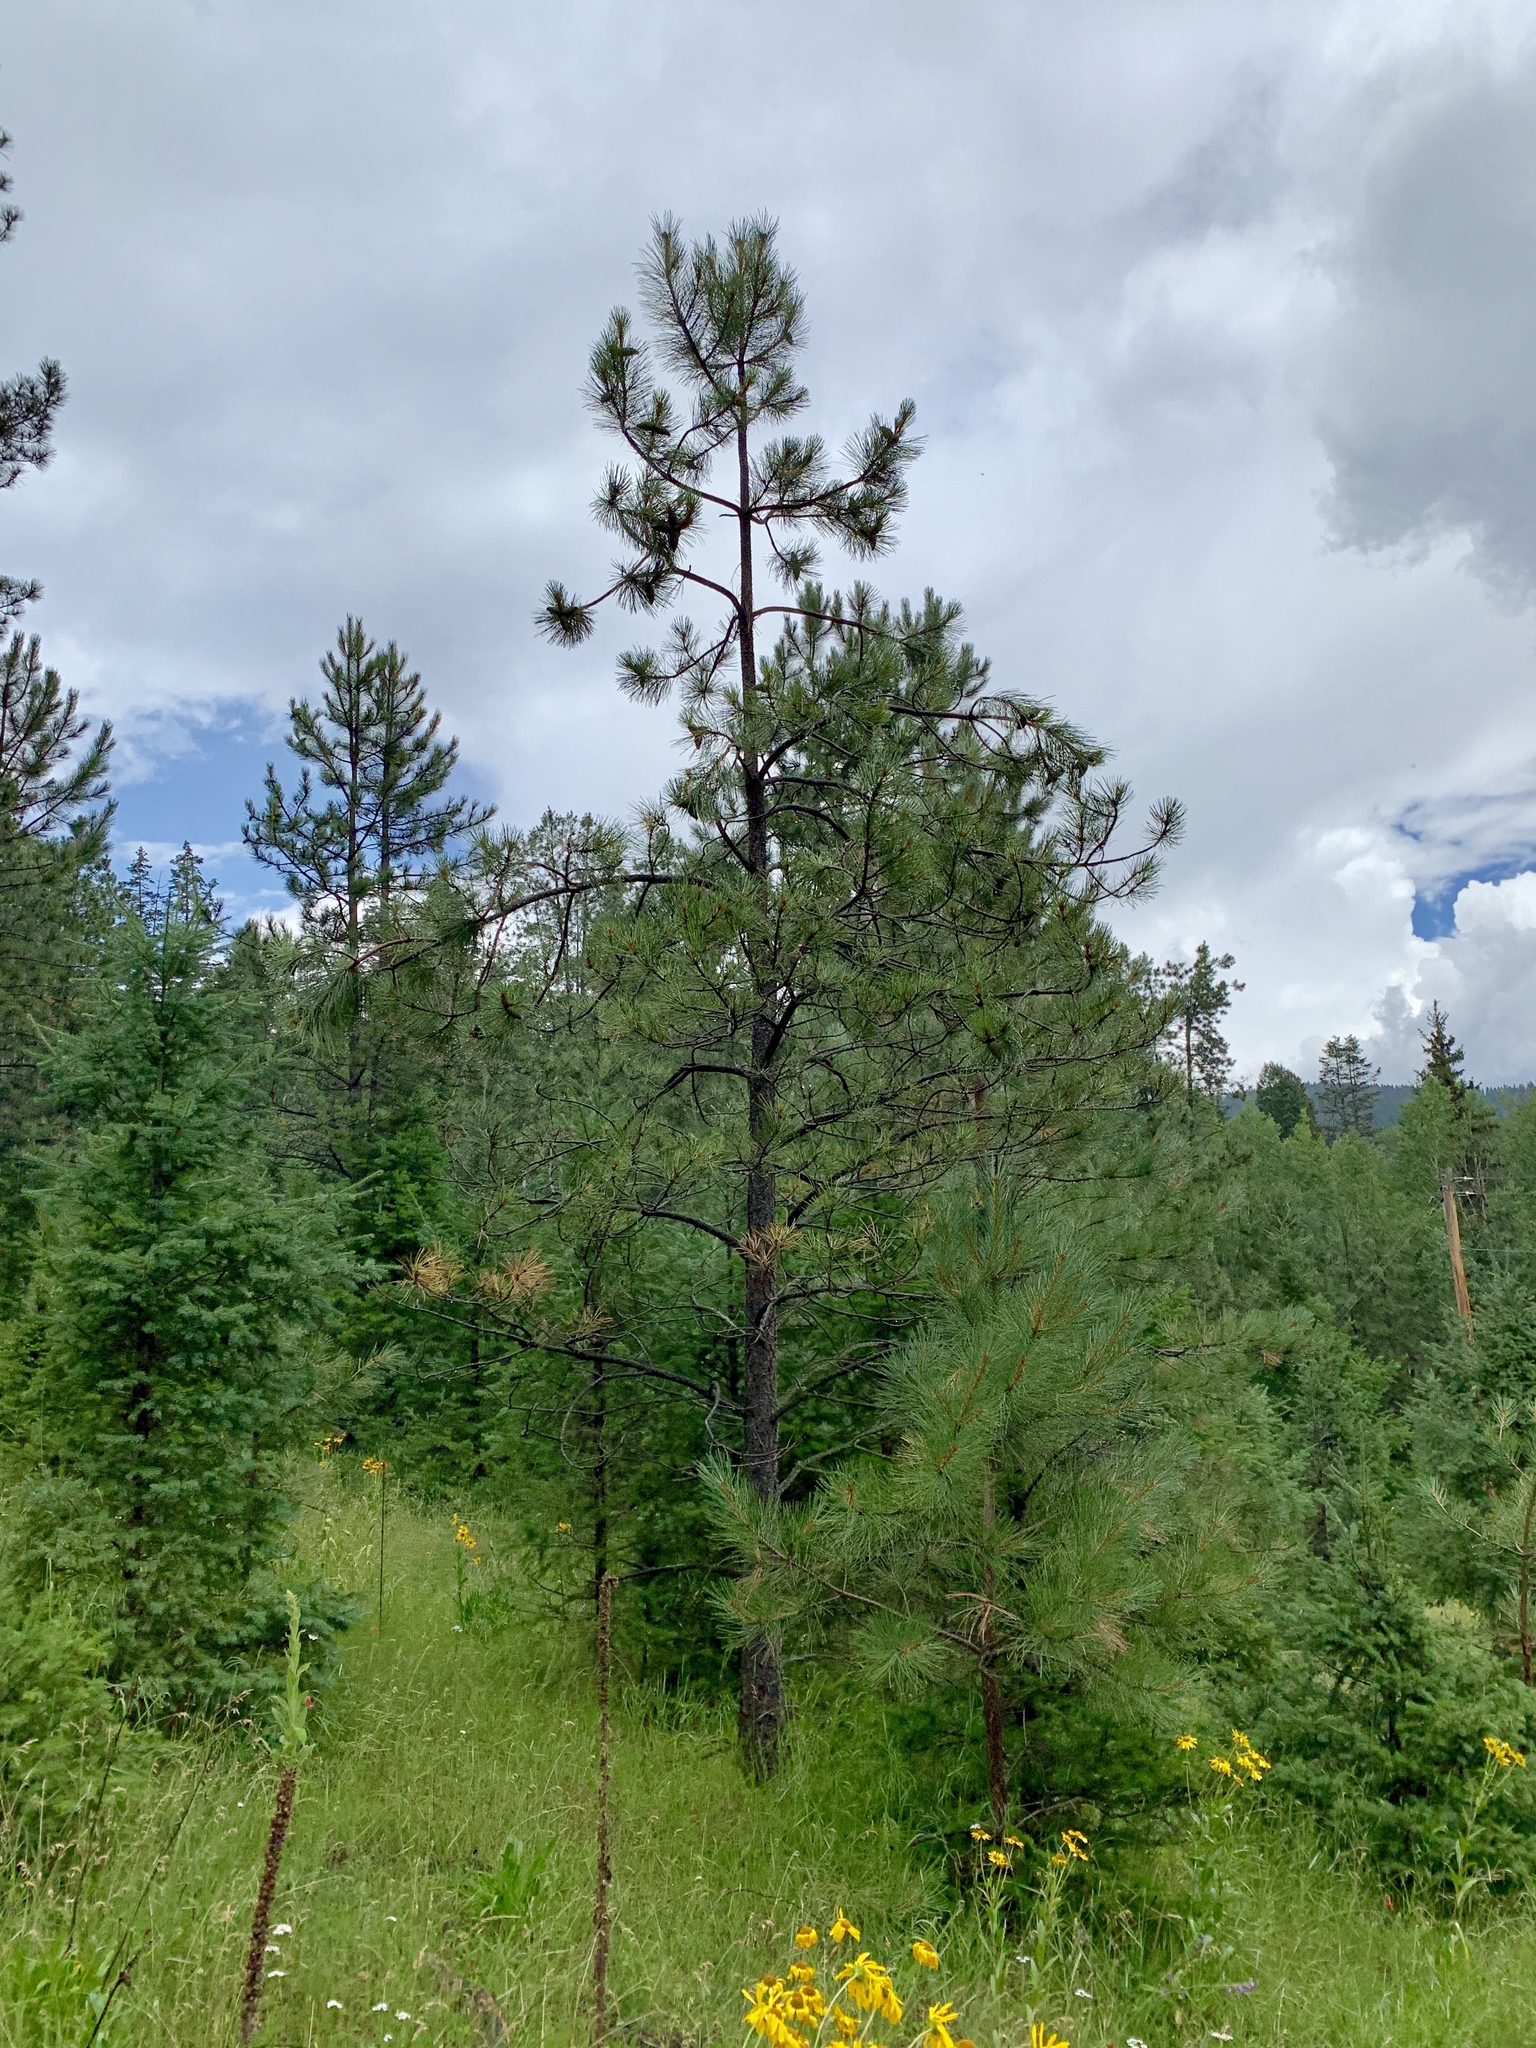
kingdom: Plantae
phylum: Tracheophyta
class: Pinopsida
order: Pinales
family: Pinaceae
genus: Pinus
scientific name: Pinus ponderosa
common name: Western yellow-pine
